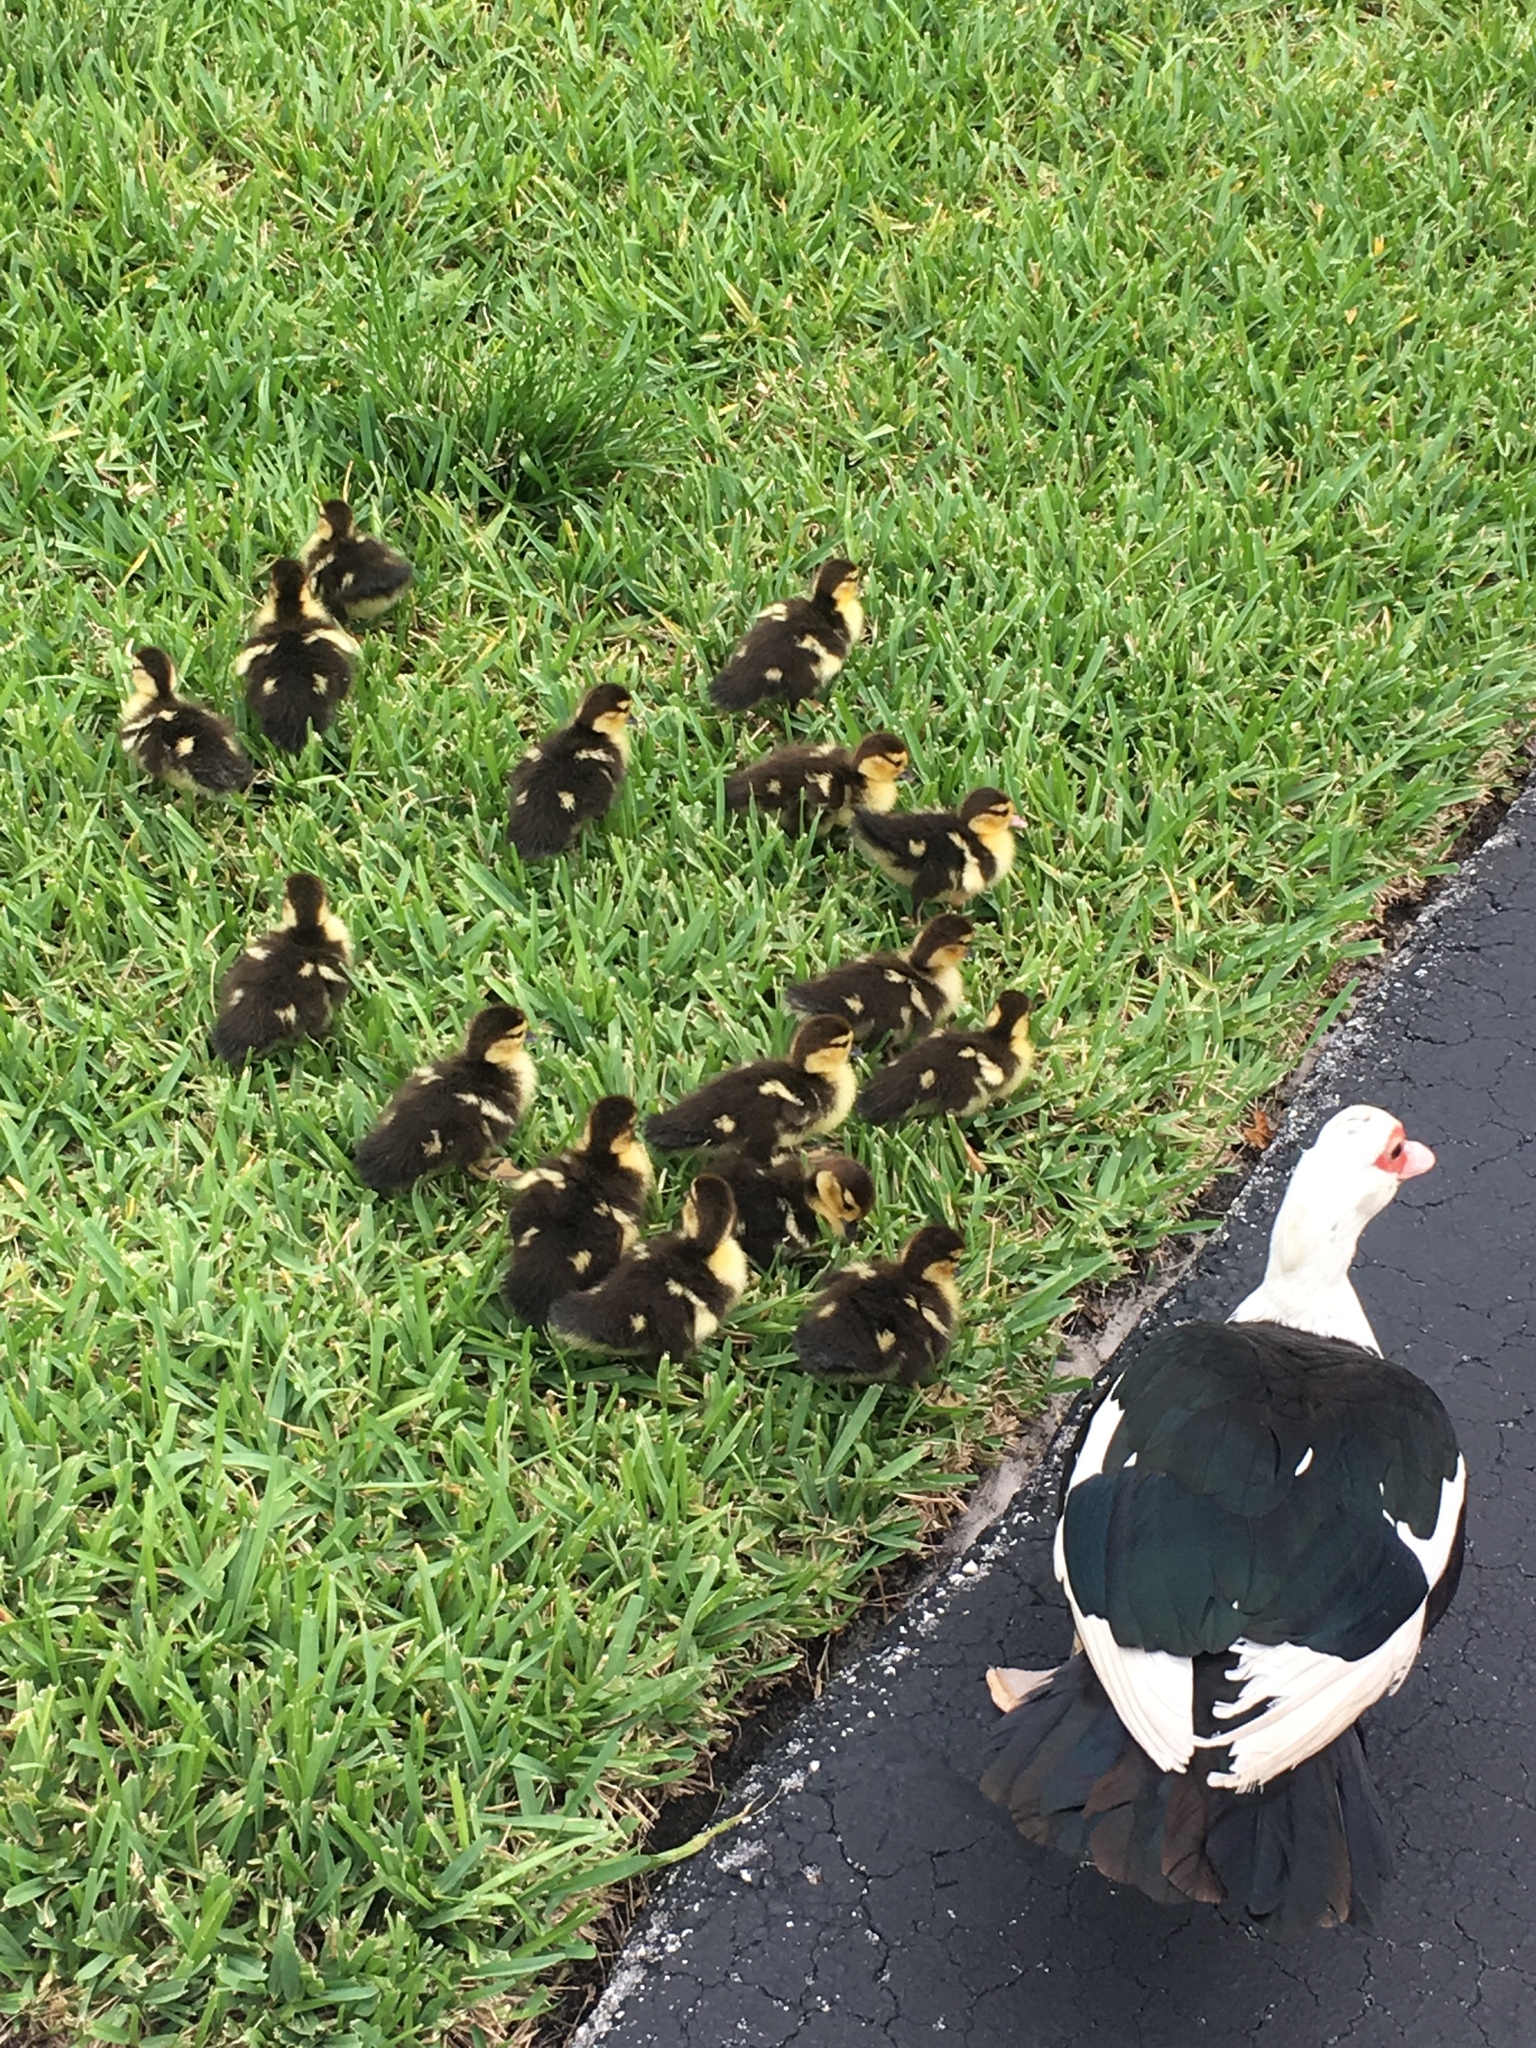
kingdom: Animalia
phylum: Chordata
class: Aves
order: Anseriformes
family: Anatidae
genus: Cairina
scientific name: Cairina moschata
